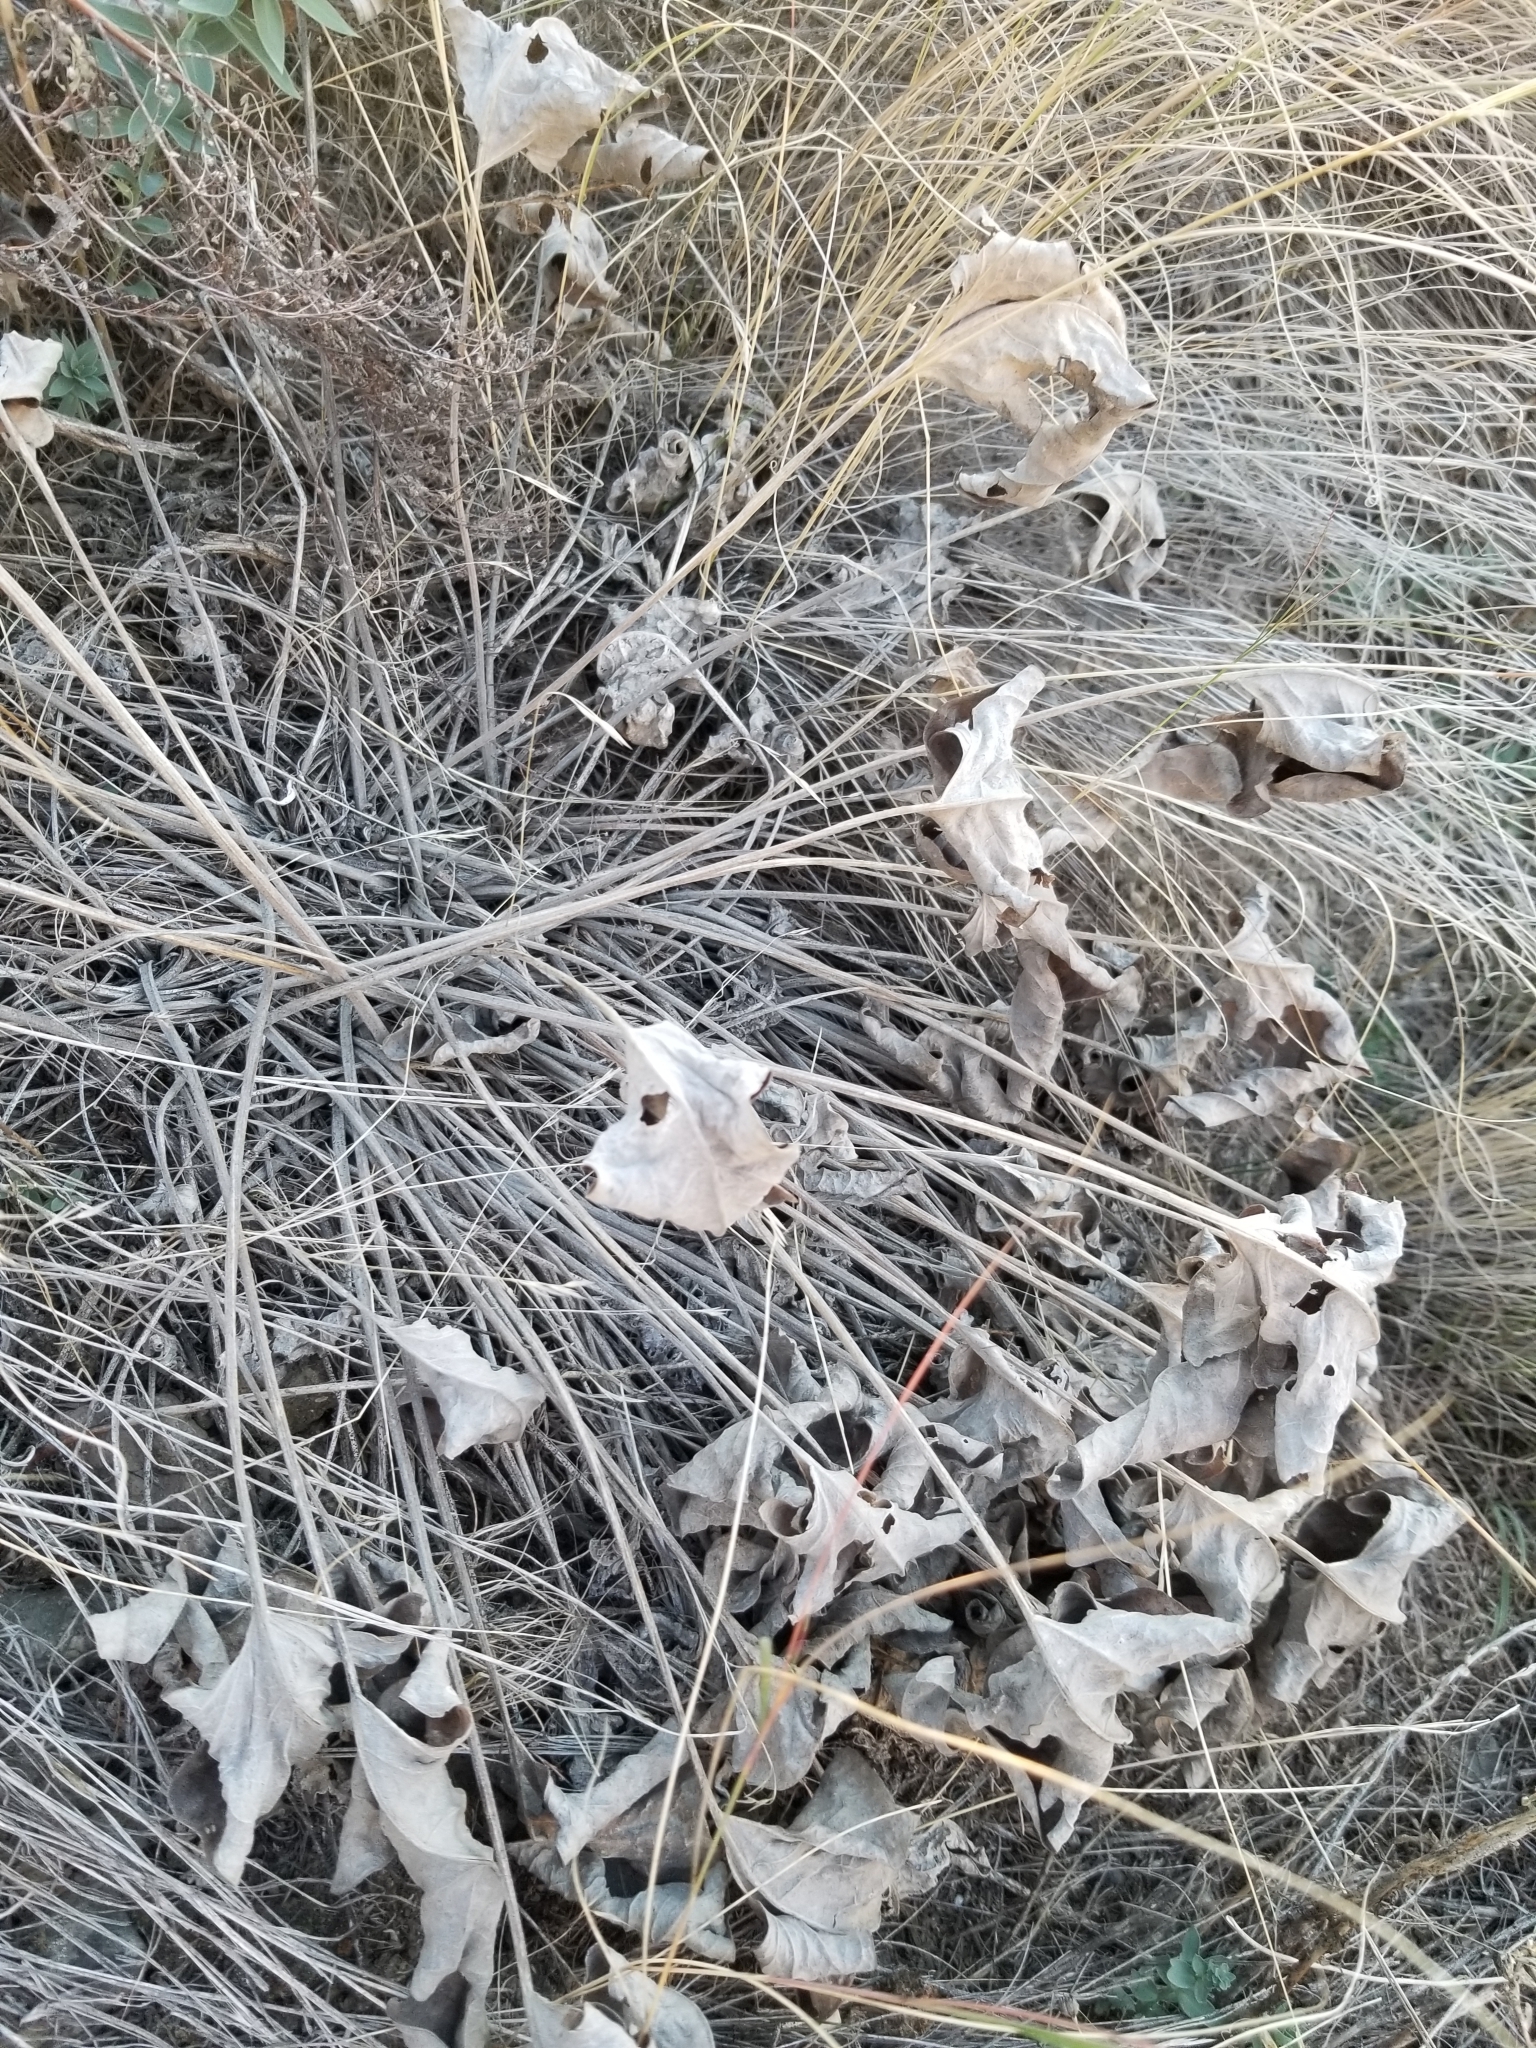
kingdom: Plantae
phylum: Tracheophyta
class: Magnoliopsida
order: Asterales
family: Asteraceae
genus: Wyethia
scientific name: Wyethia sagittata
